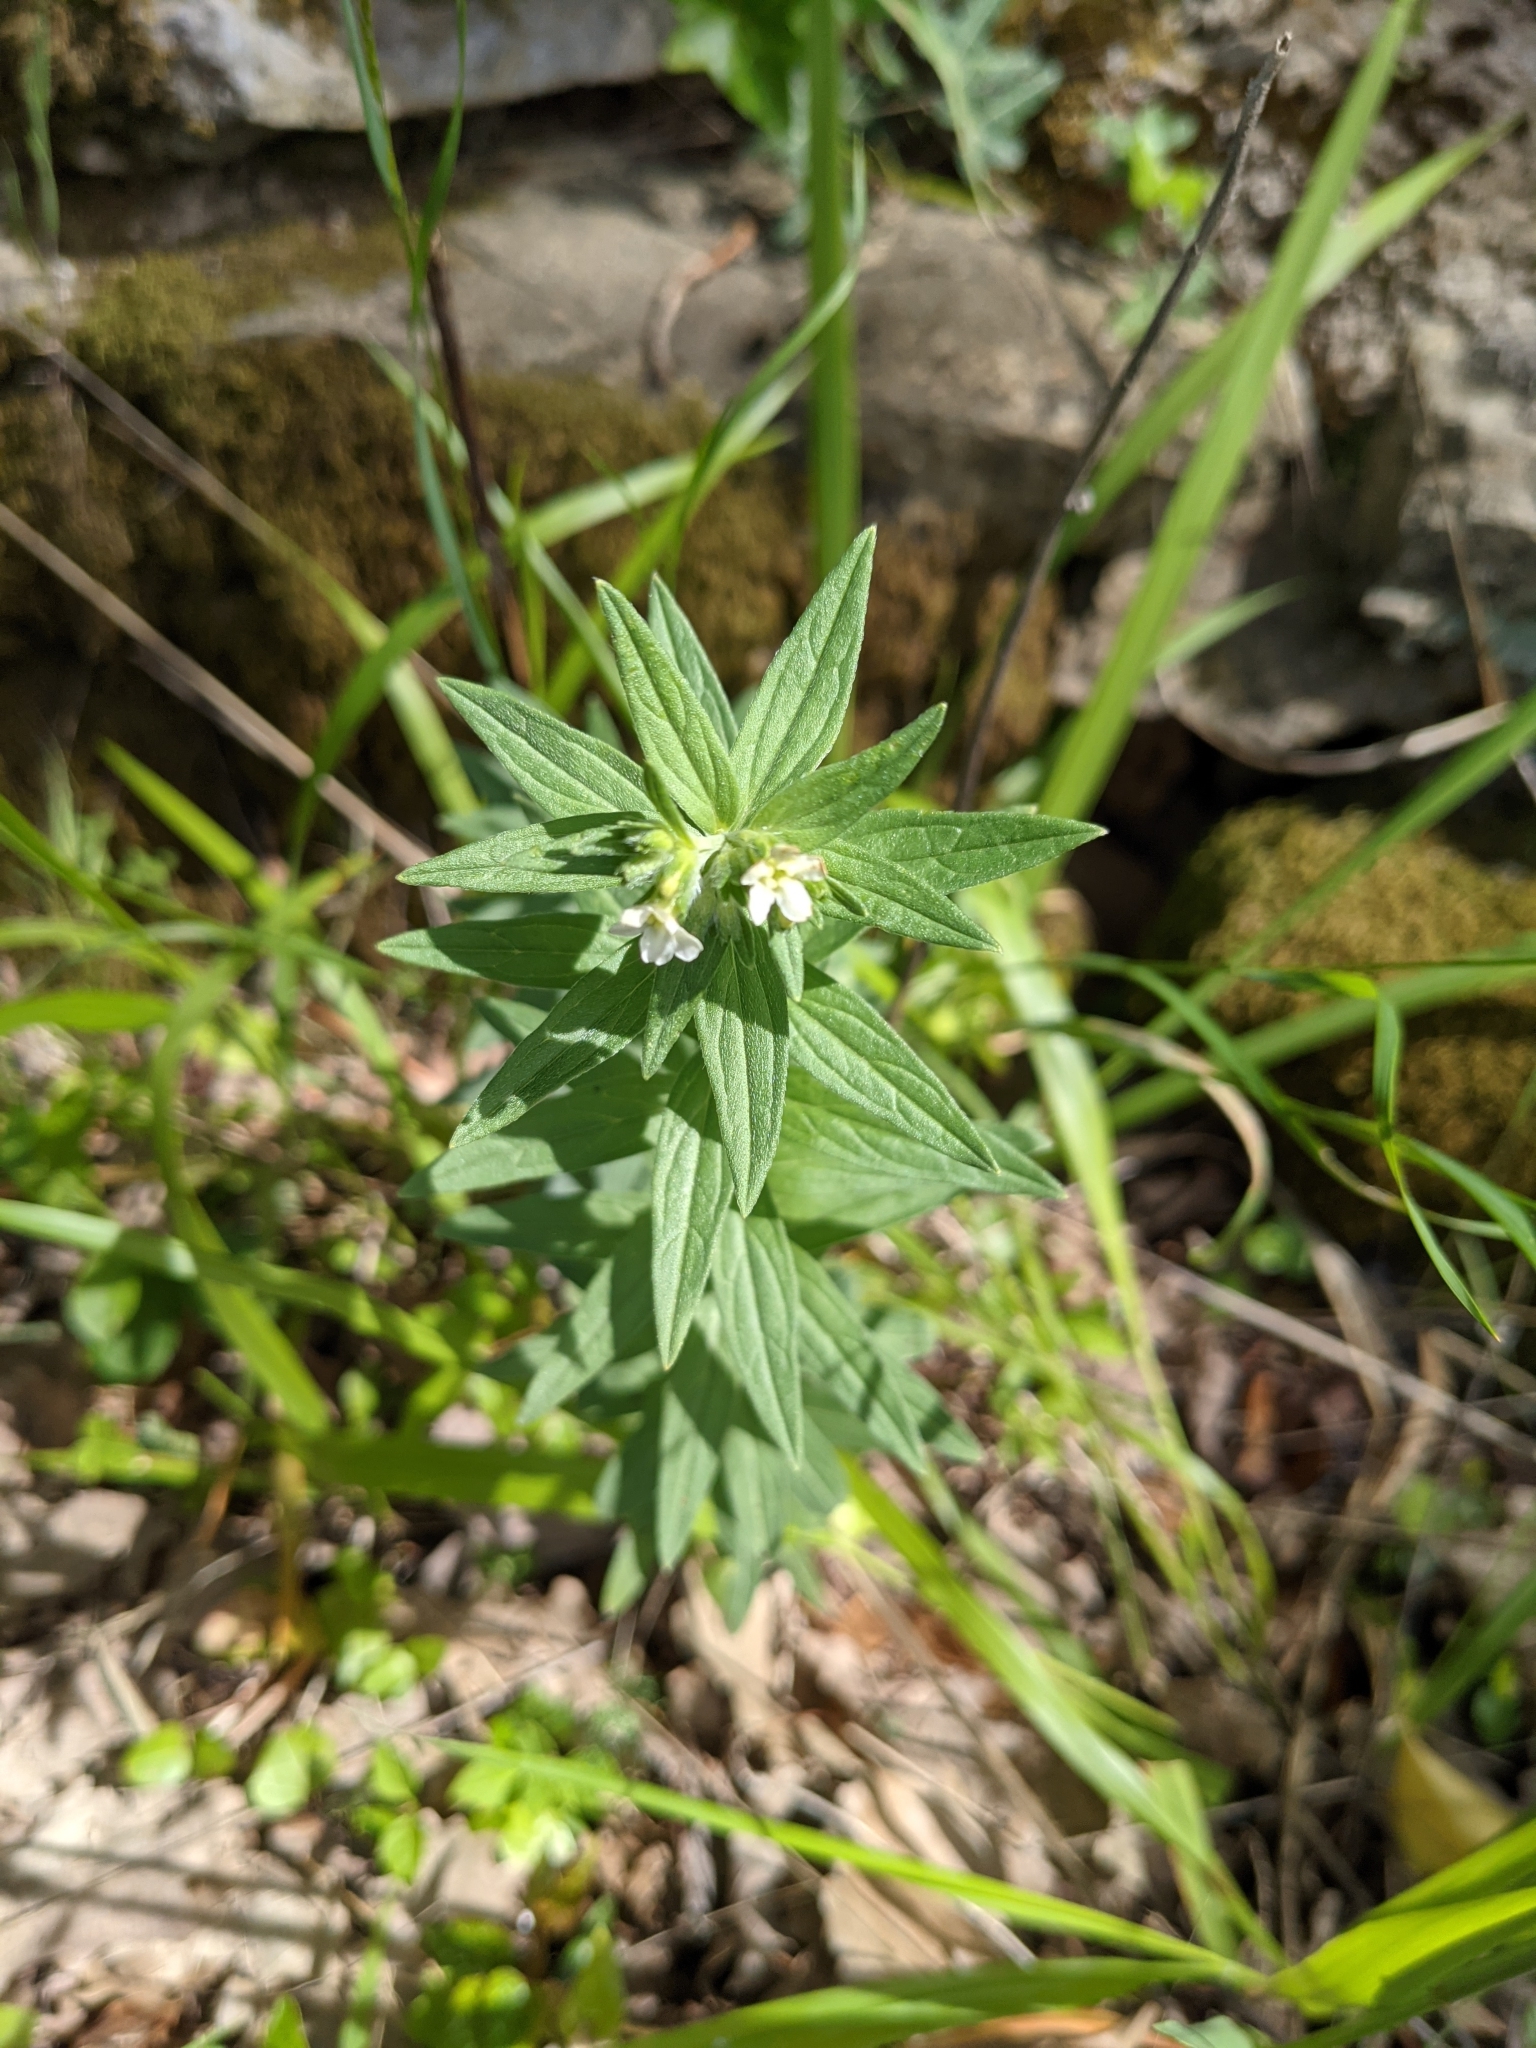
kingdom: Plantae
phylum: Tracheophyta
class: Magnoliopsida
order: Boraginales
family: Boraginaceae
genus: Lithospermum
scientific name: Lithospermum officinale
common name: Common gromwell
